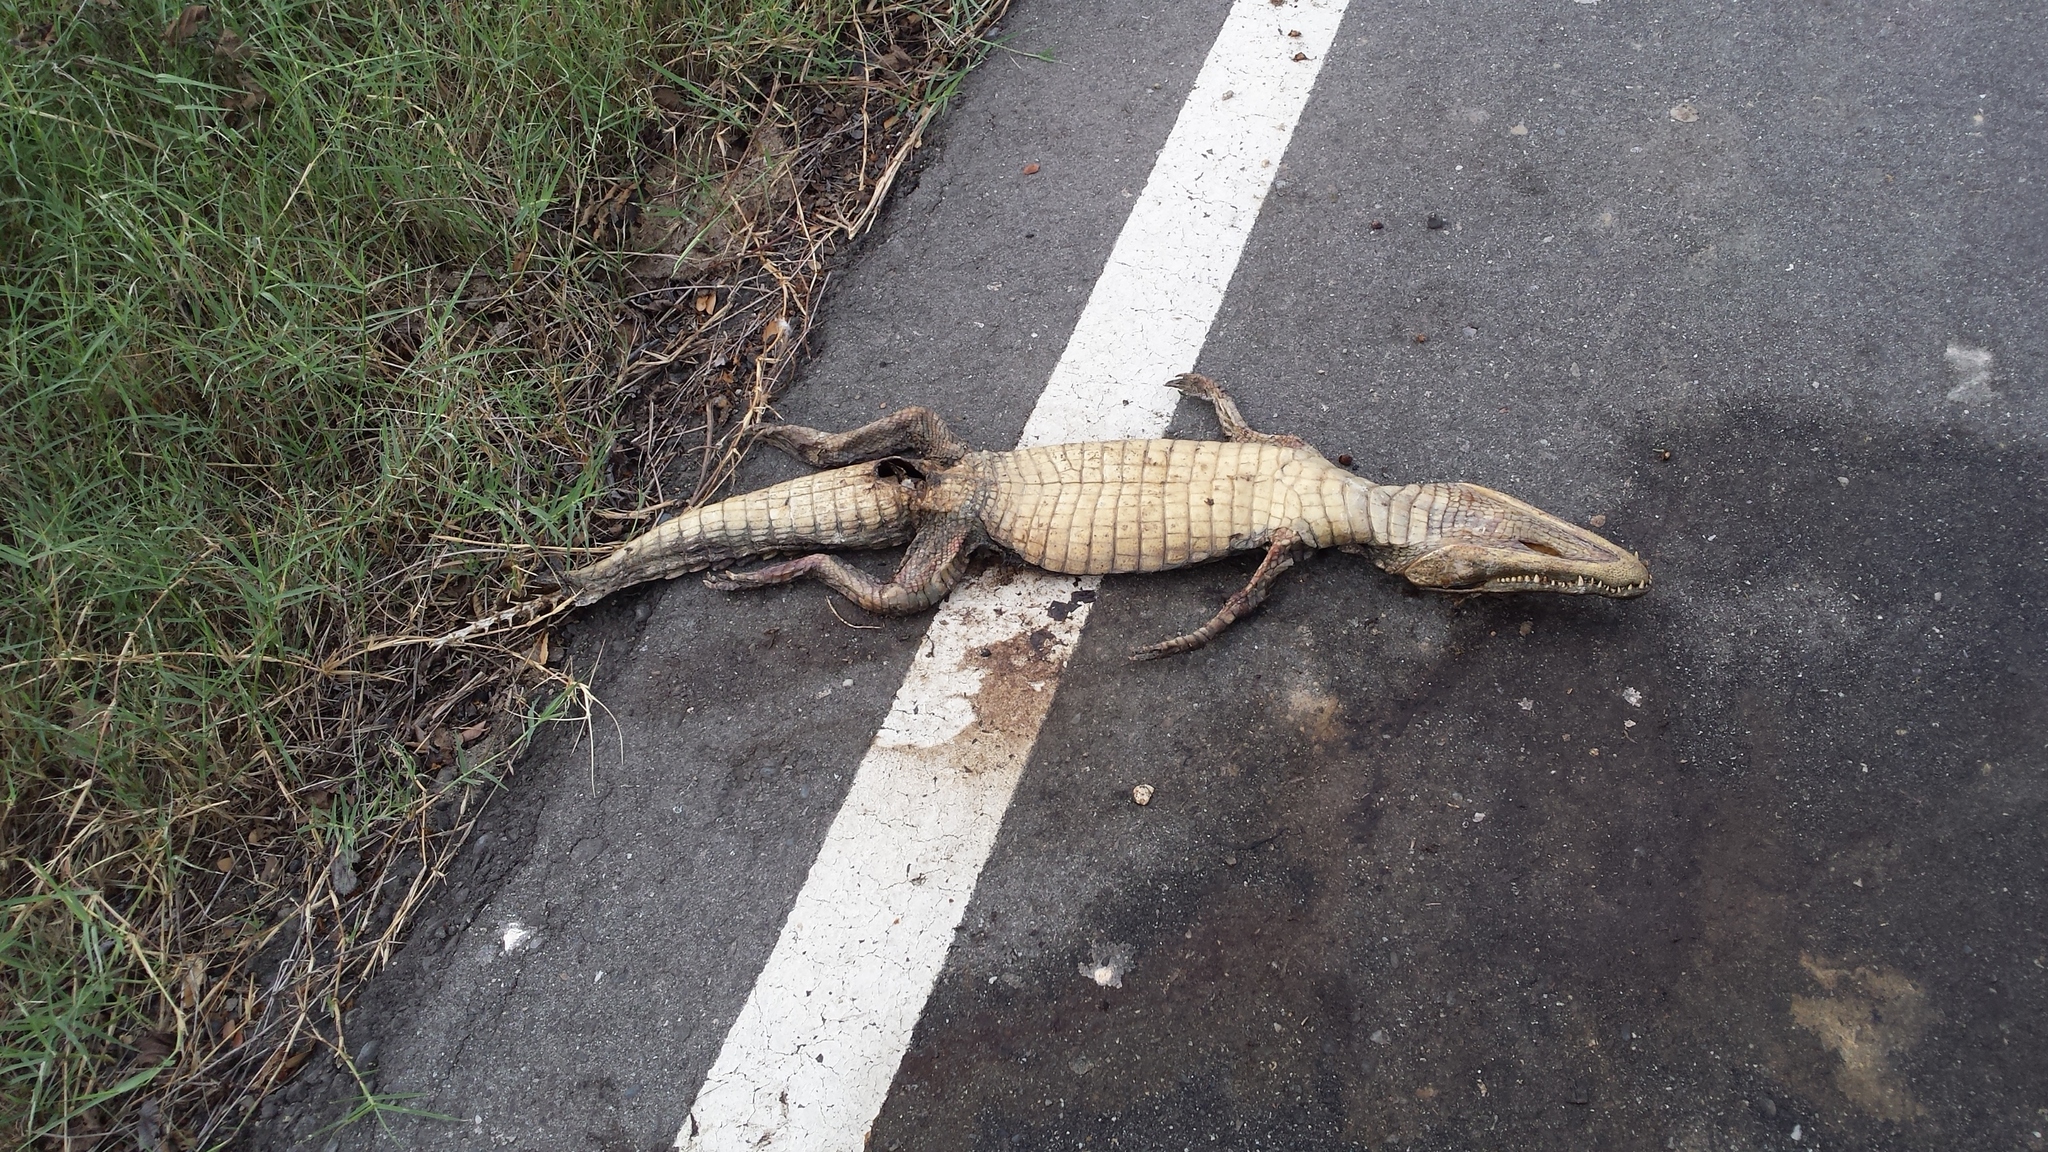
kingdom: Animalia
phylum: Chordata
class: Crocodylia
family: Alligatoridae
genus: Caiman
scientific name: Caiman crocodilus
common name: Common caiman
